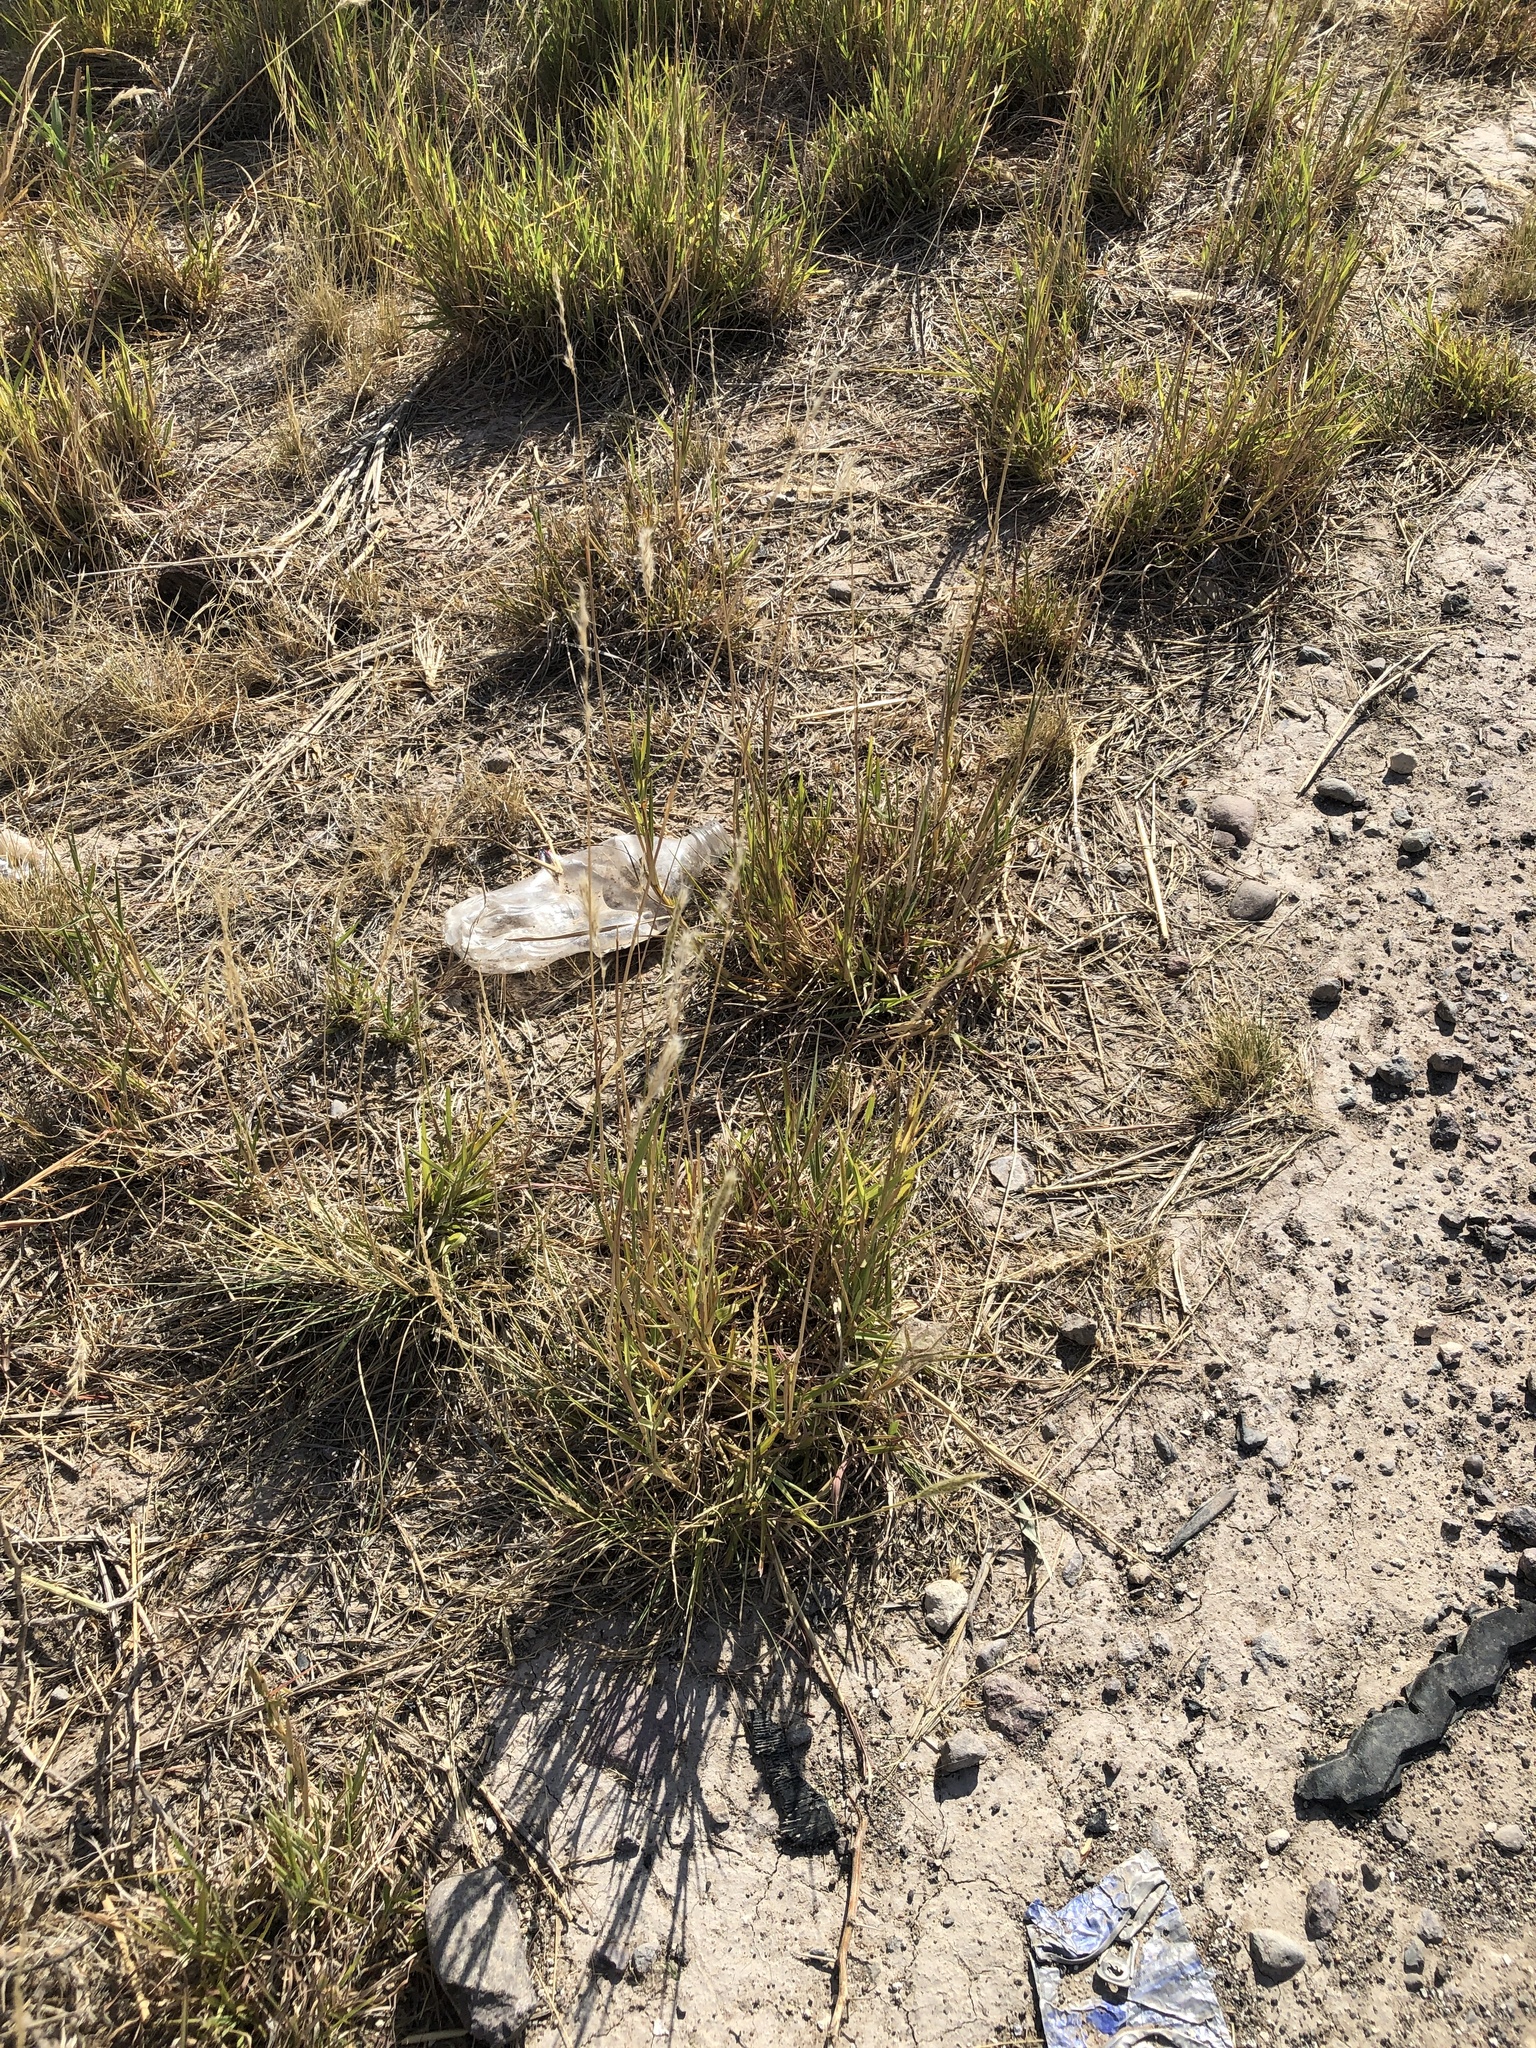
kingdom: Plantae
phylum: Tracheophyta
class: Liliopsida
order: Poales
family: Poaceae
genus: Bothriochloa
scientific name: Bothriochloa torreyana
